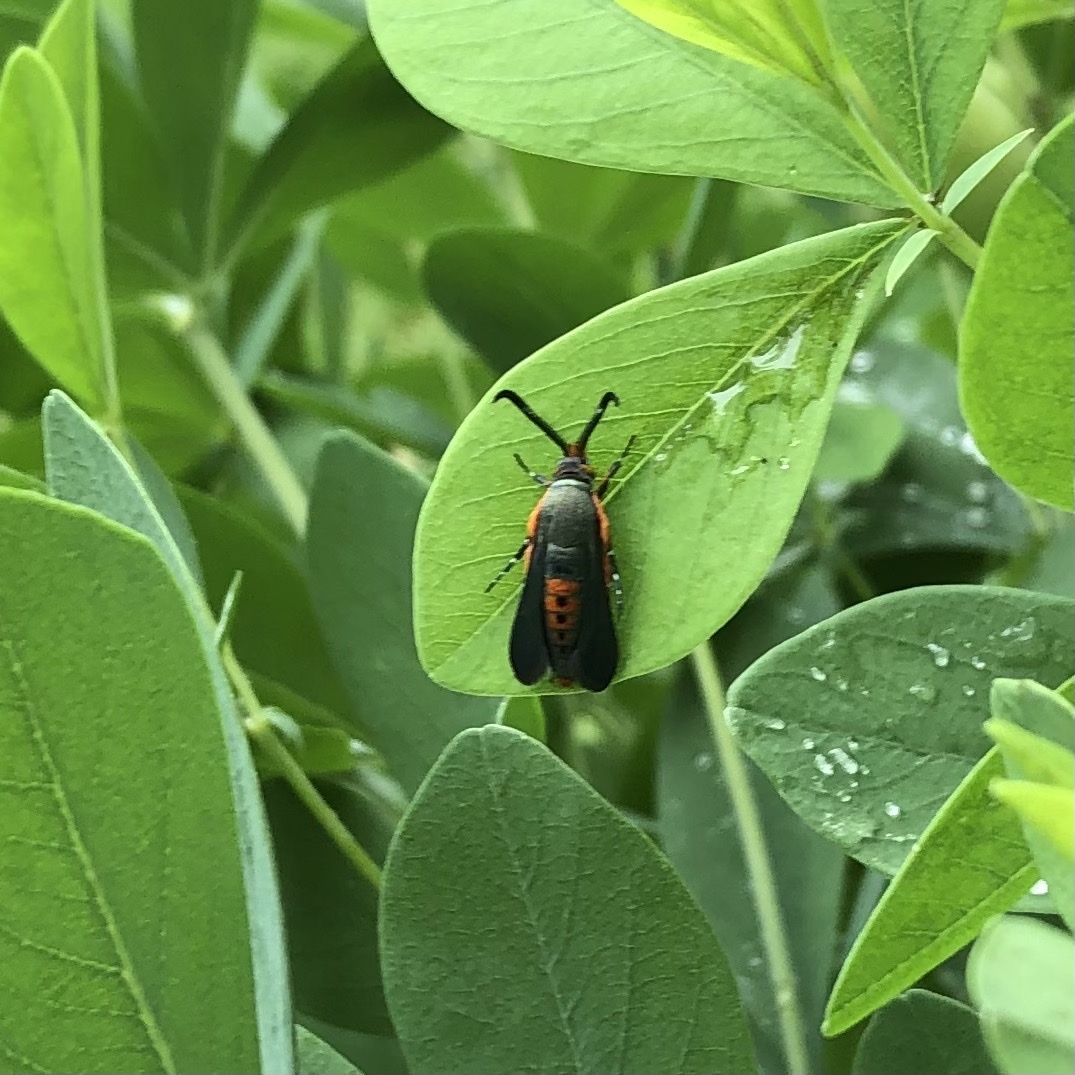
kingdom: Animalia
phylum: Arthropoda
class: Insecta
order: Lepidoptera
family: Sesiidae
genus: Eichlinia
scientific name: Eichlinia cucurbitae
